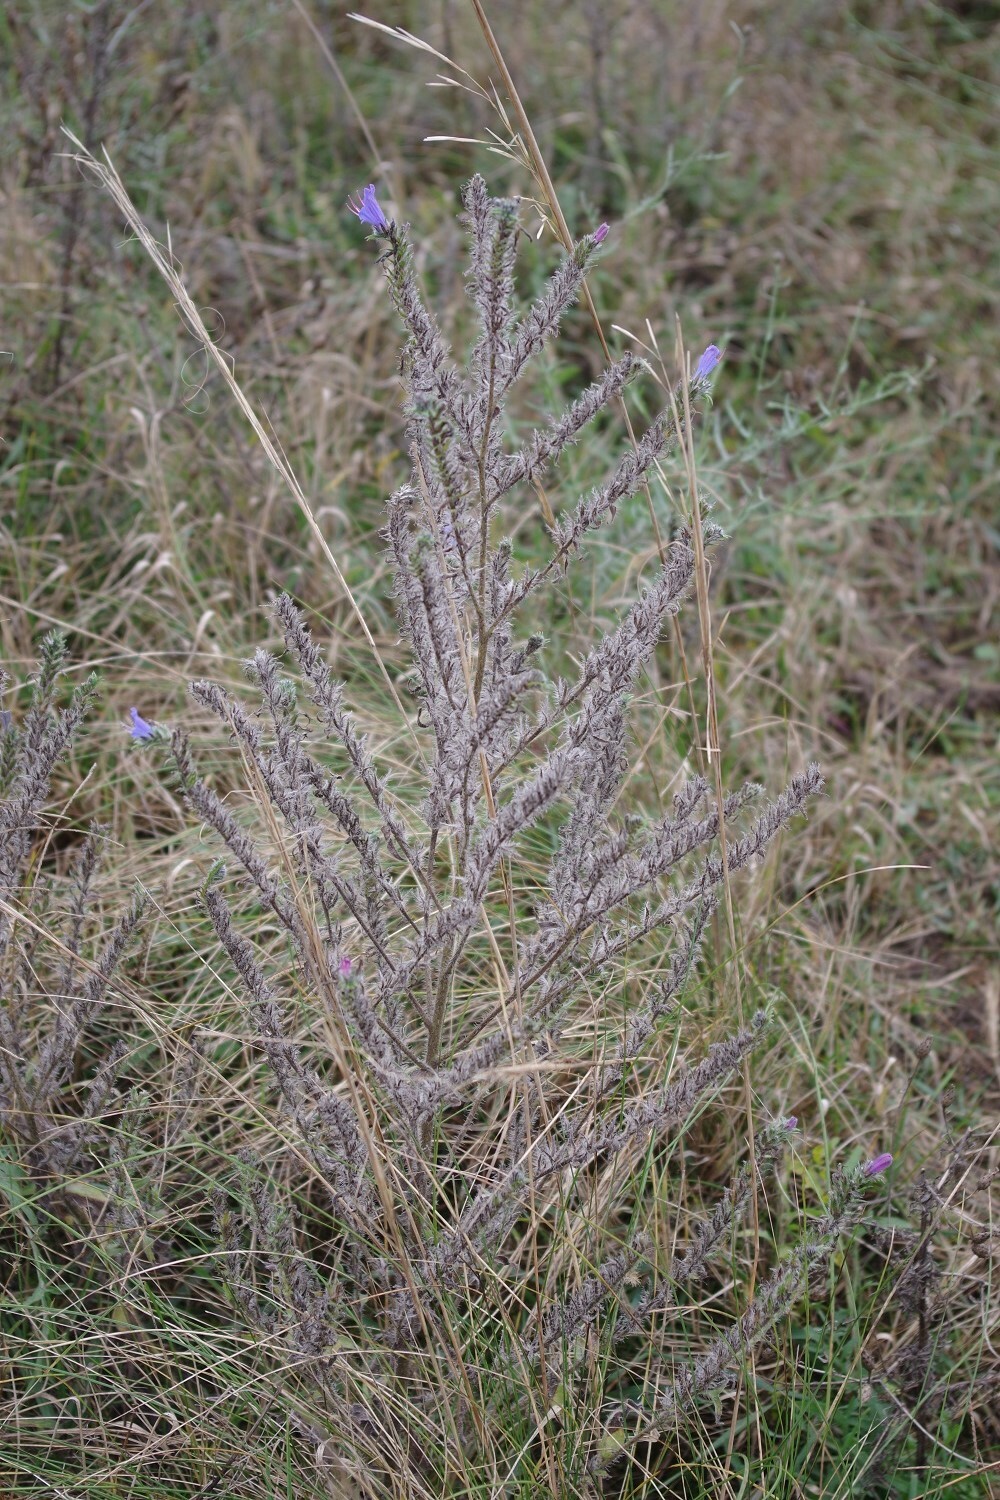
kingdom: Plantae
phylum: Tracheophyta
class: Magnoliopsida
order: Boraginales
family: Boraginaceae
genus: Echium
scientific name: Echium vulgare
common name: Common viper's bugloss
